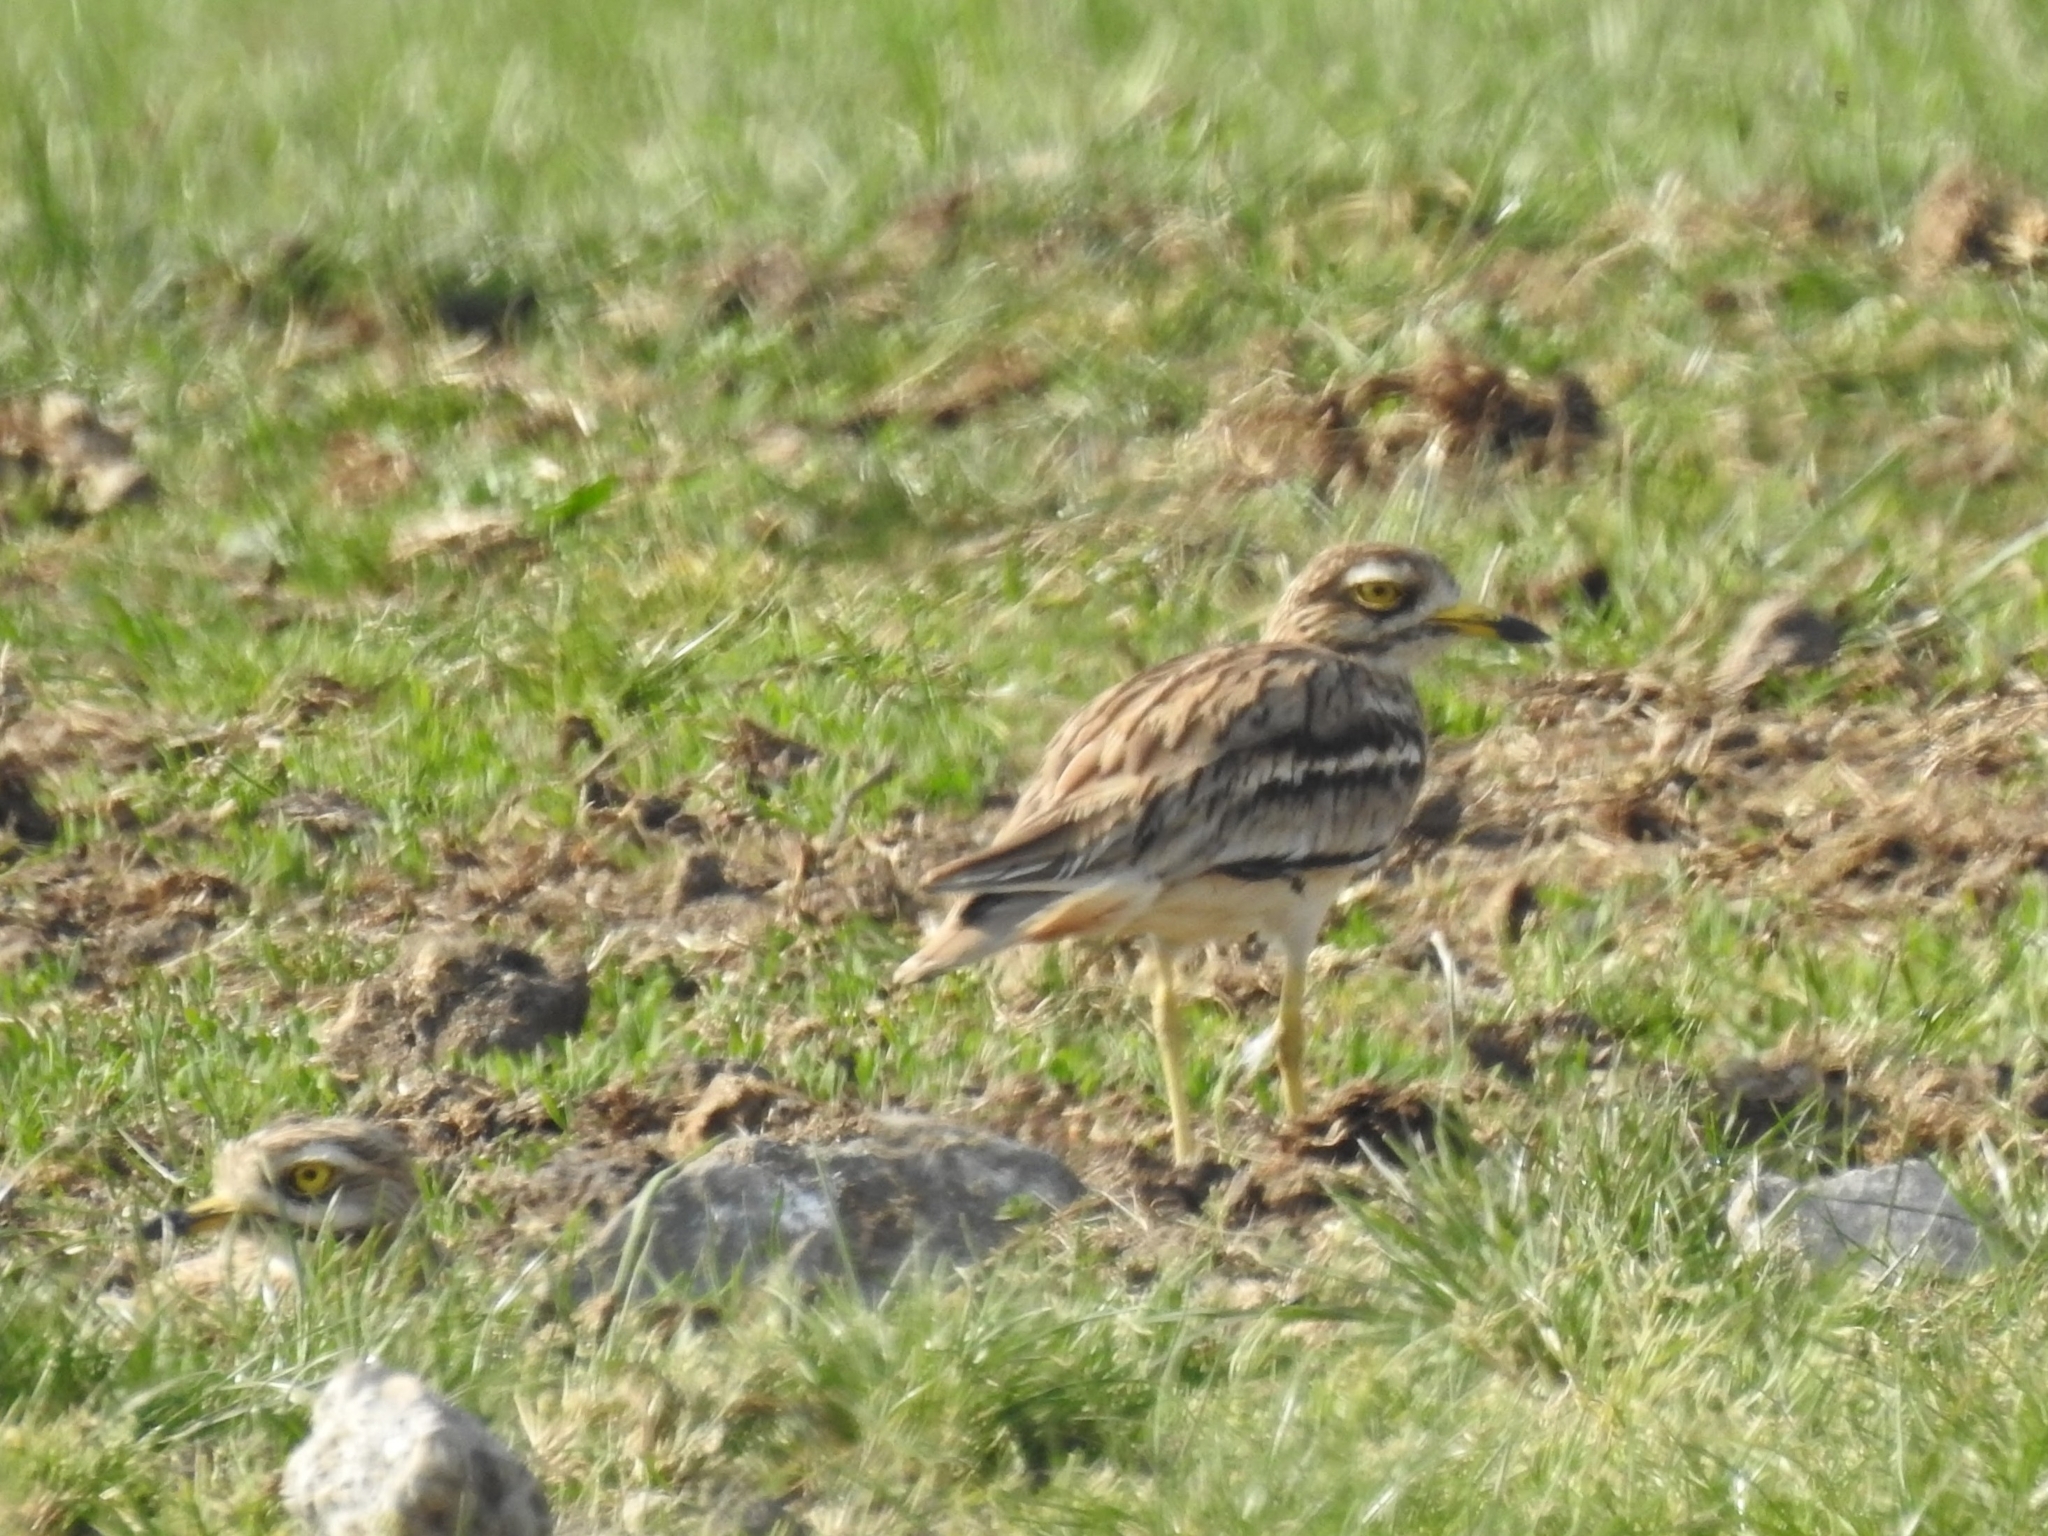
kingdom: Animalia
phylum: Chordata
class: Aves
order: Charadriiformes
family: Burhinidae
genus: Burhinus
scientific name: Burhinus oedicnemus
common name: Eurasian stone-curlew
